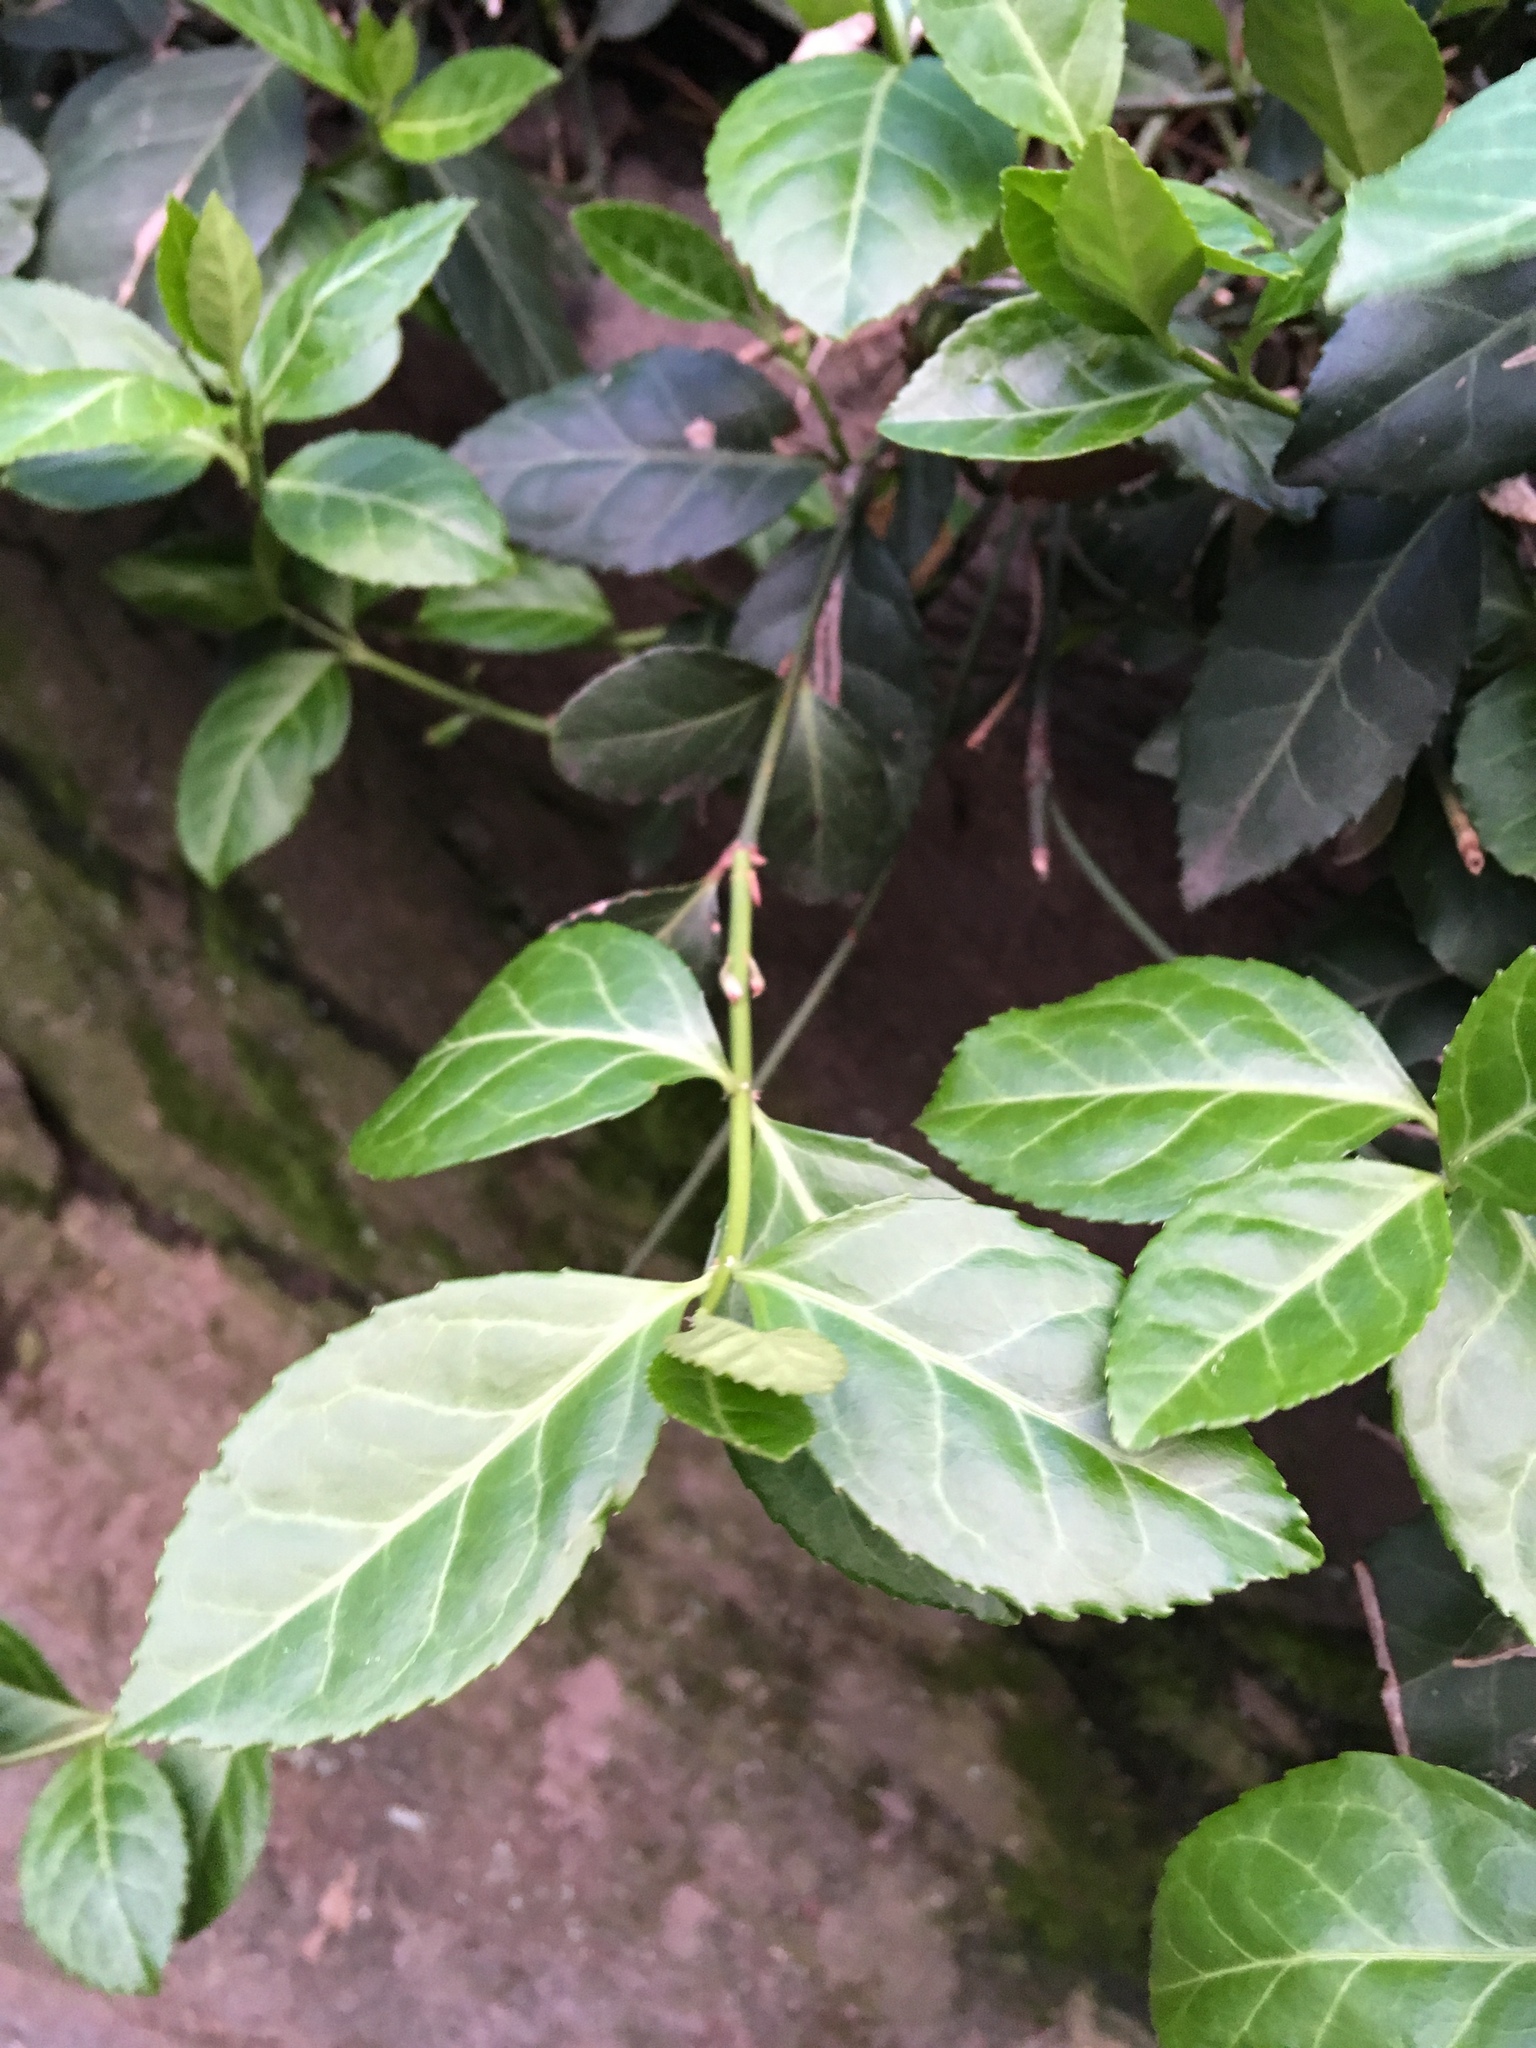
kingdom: Plantae
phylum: Tracheophyta
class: Magnoliopsida
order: Celastrales
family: Celastraceae
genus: Euonymus
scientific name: Euonymus fortunei
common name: Climbing euonymus
